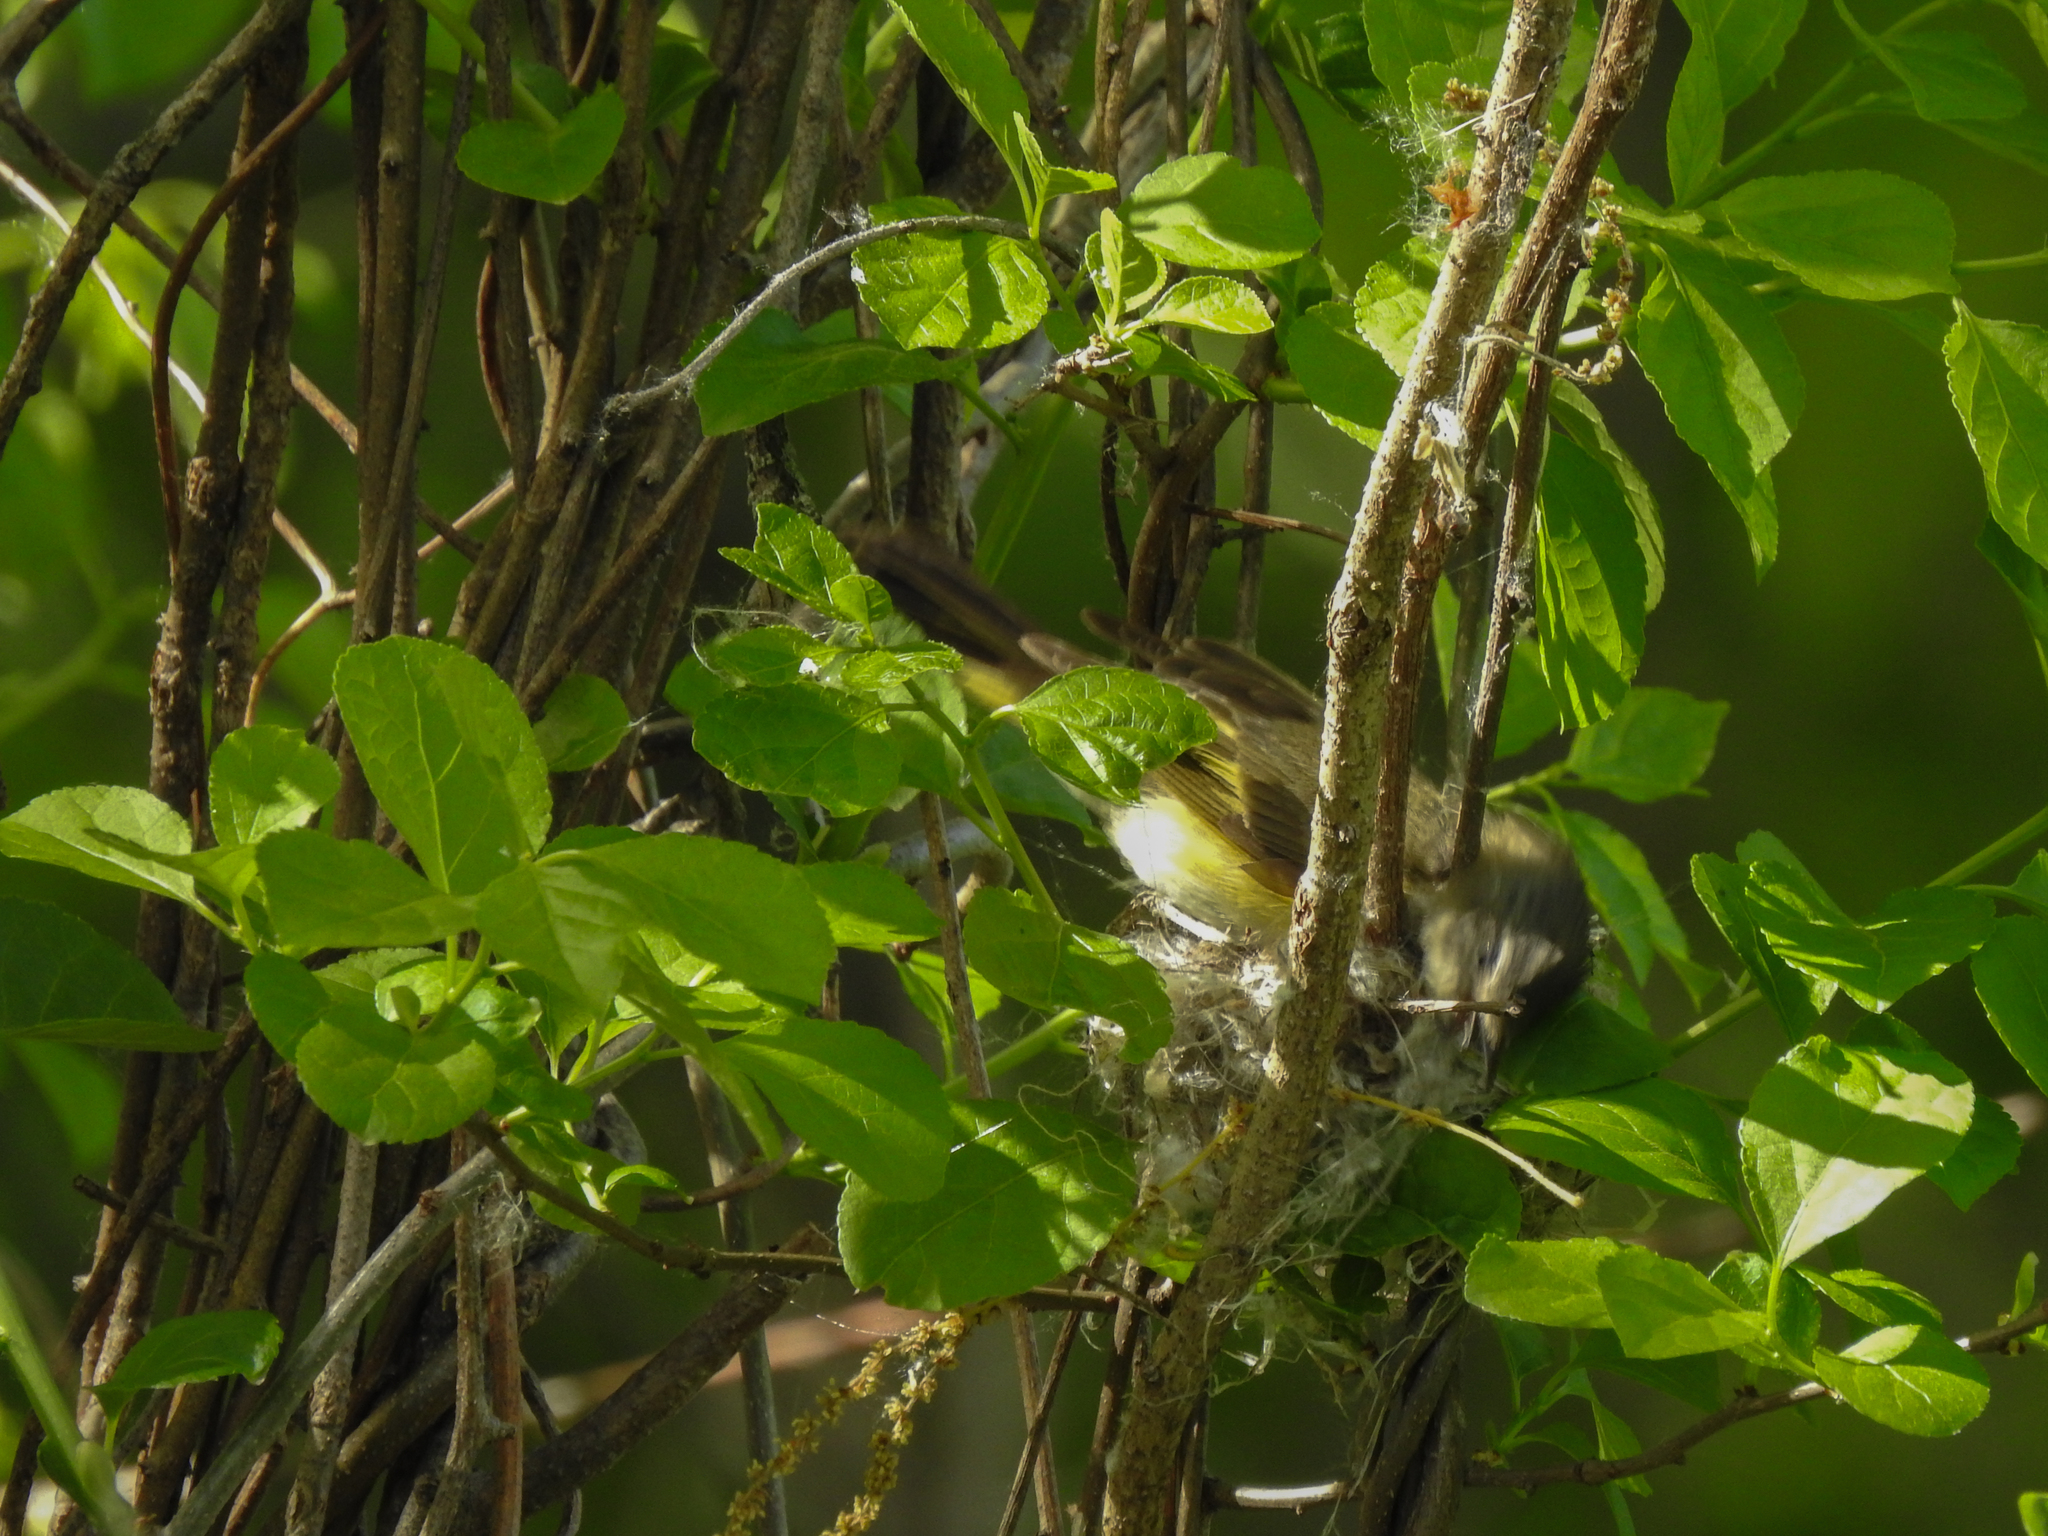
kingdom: Animalia
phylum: Chordata
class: Aves
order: Passeriformes
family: Parulidae
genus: Setophaga
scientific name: Setophaga ruticilla
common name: American redstart
